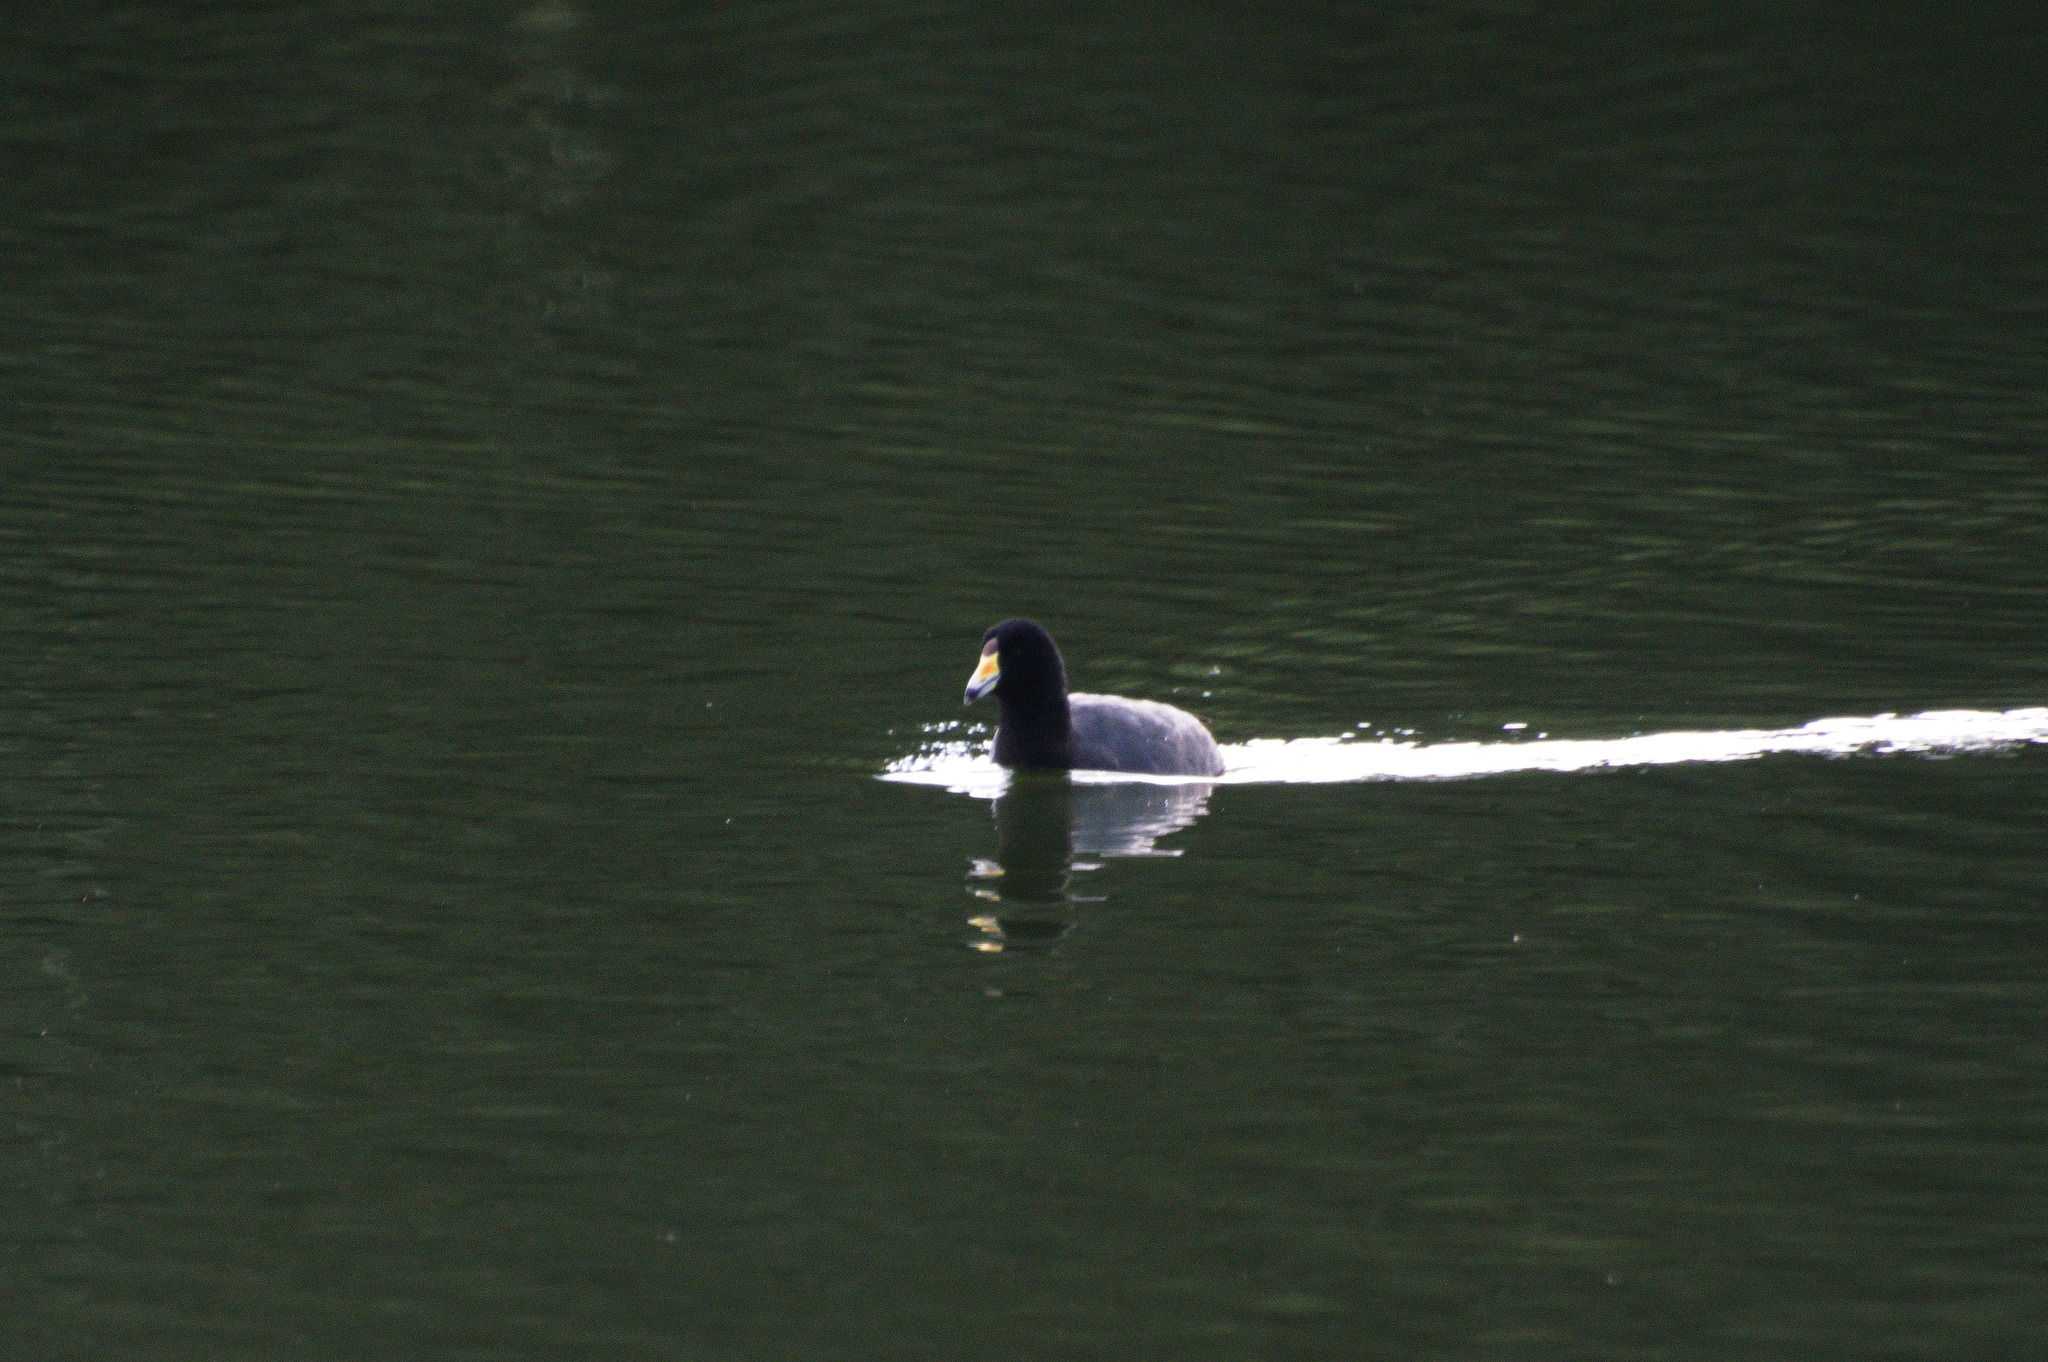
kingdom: Animalia
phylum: Chordata
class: Aves
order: Gruiformes
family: Rallidae
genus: Fulica
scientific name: Fulica americana
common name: American coot
